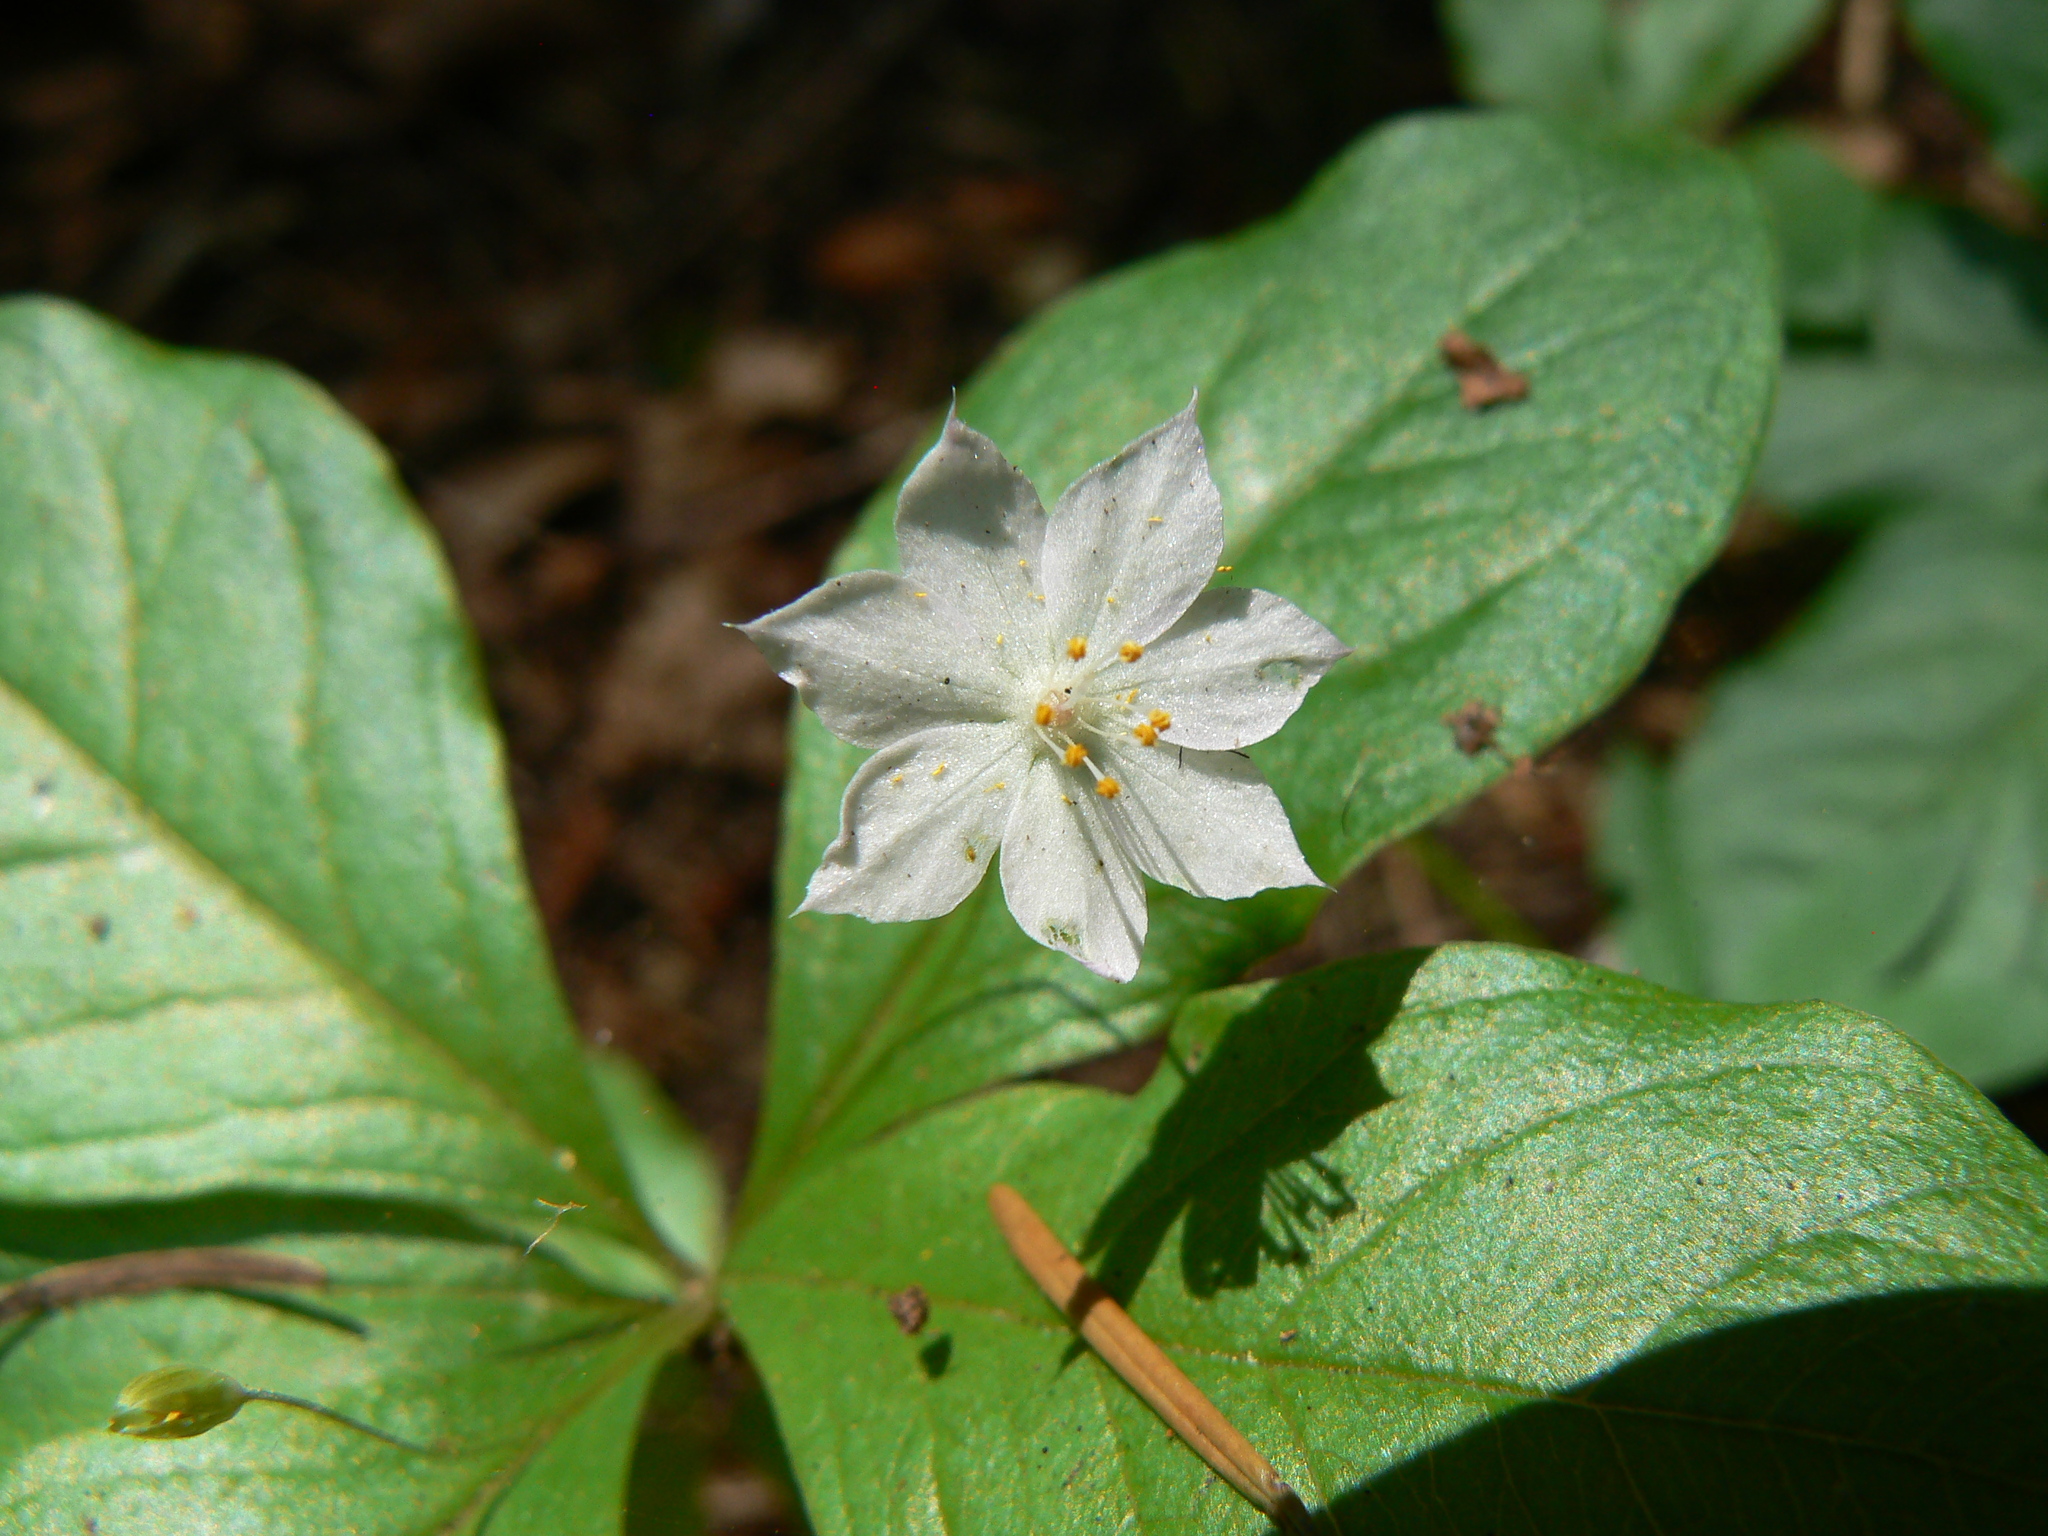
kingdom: Plantae
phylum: Tracheophyta
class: Magnoliopsida
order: Ericales
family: Primulaceae
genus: Lysimachia
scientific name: Lysimachia latifolia
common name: Pacific starflower
